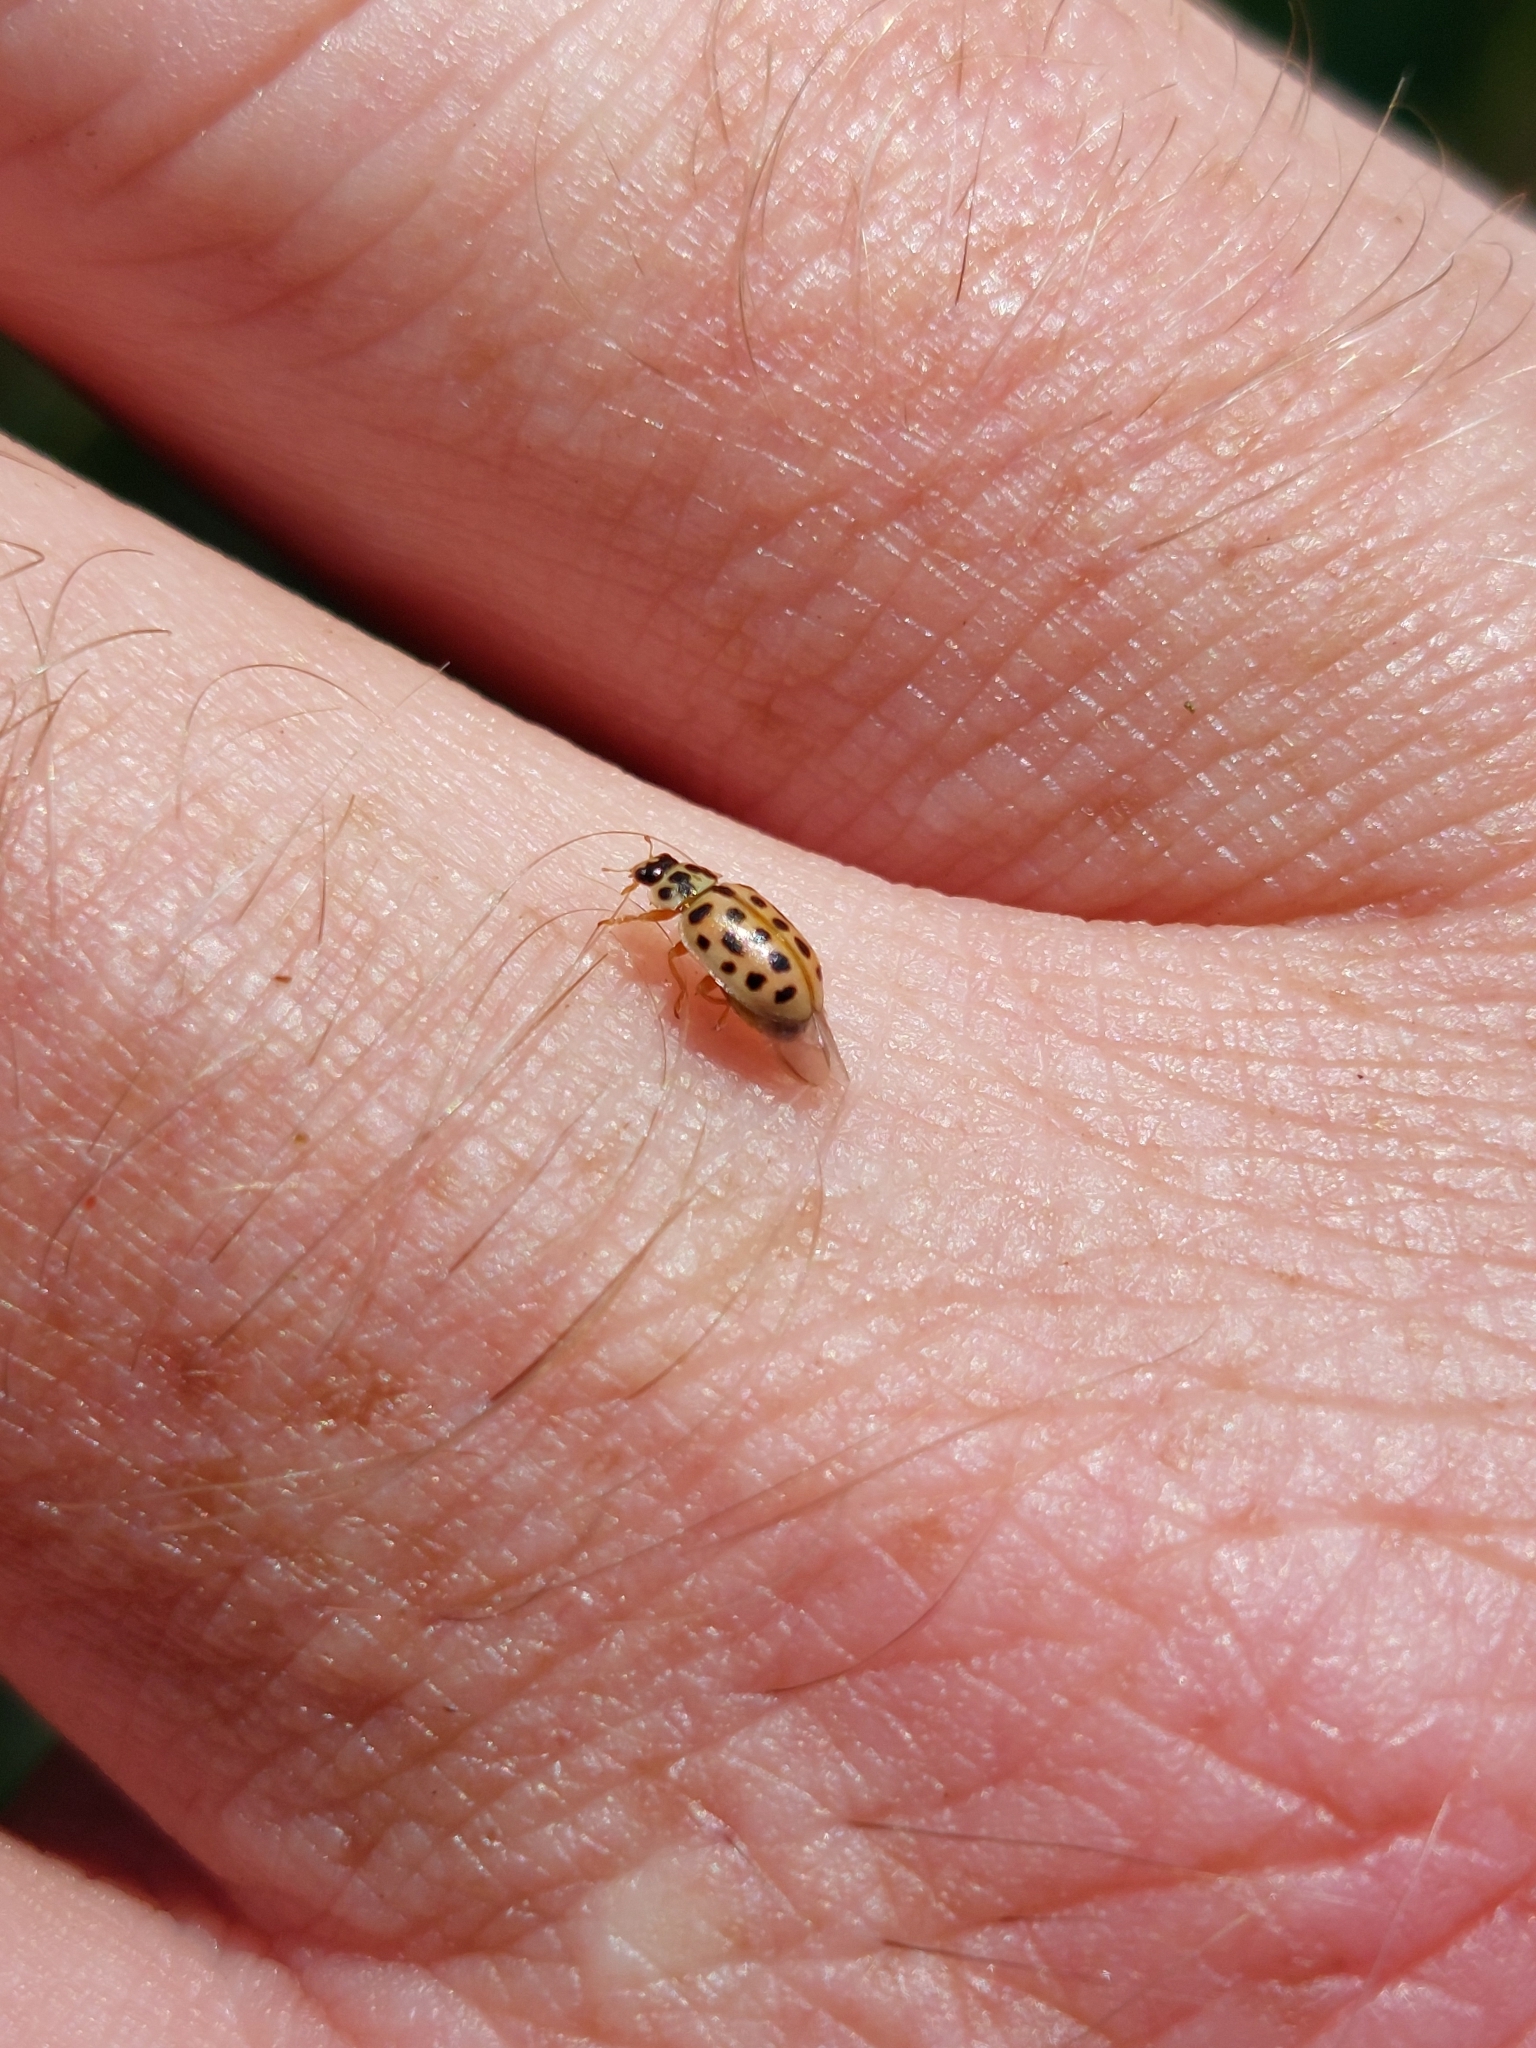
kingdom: Animalia
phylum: Arthropoda
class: Insecta
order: Coleoptera
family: Coccinellidae
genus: Anisosticta
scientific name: Anisosticta novemdecimpunctata
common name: Water ladybird
